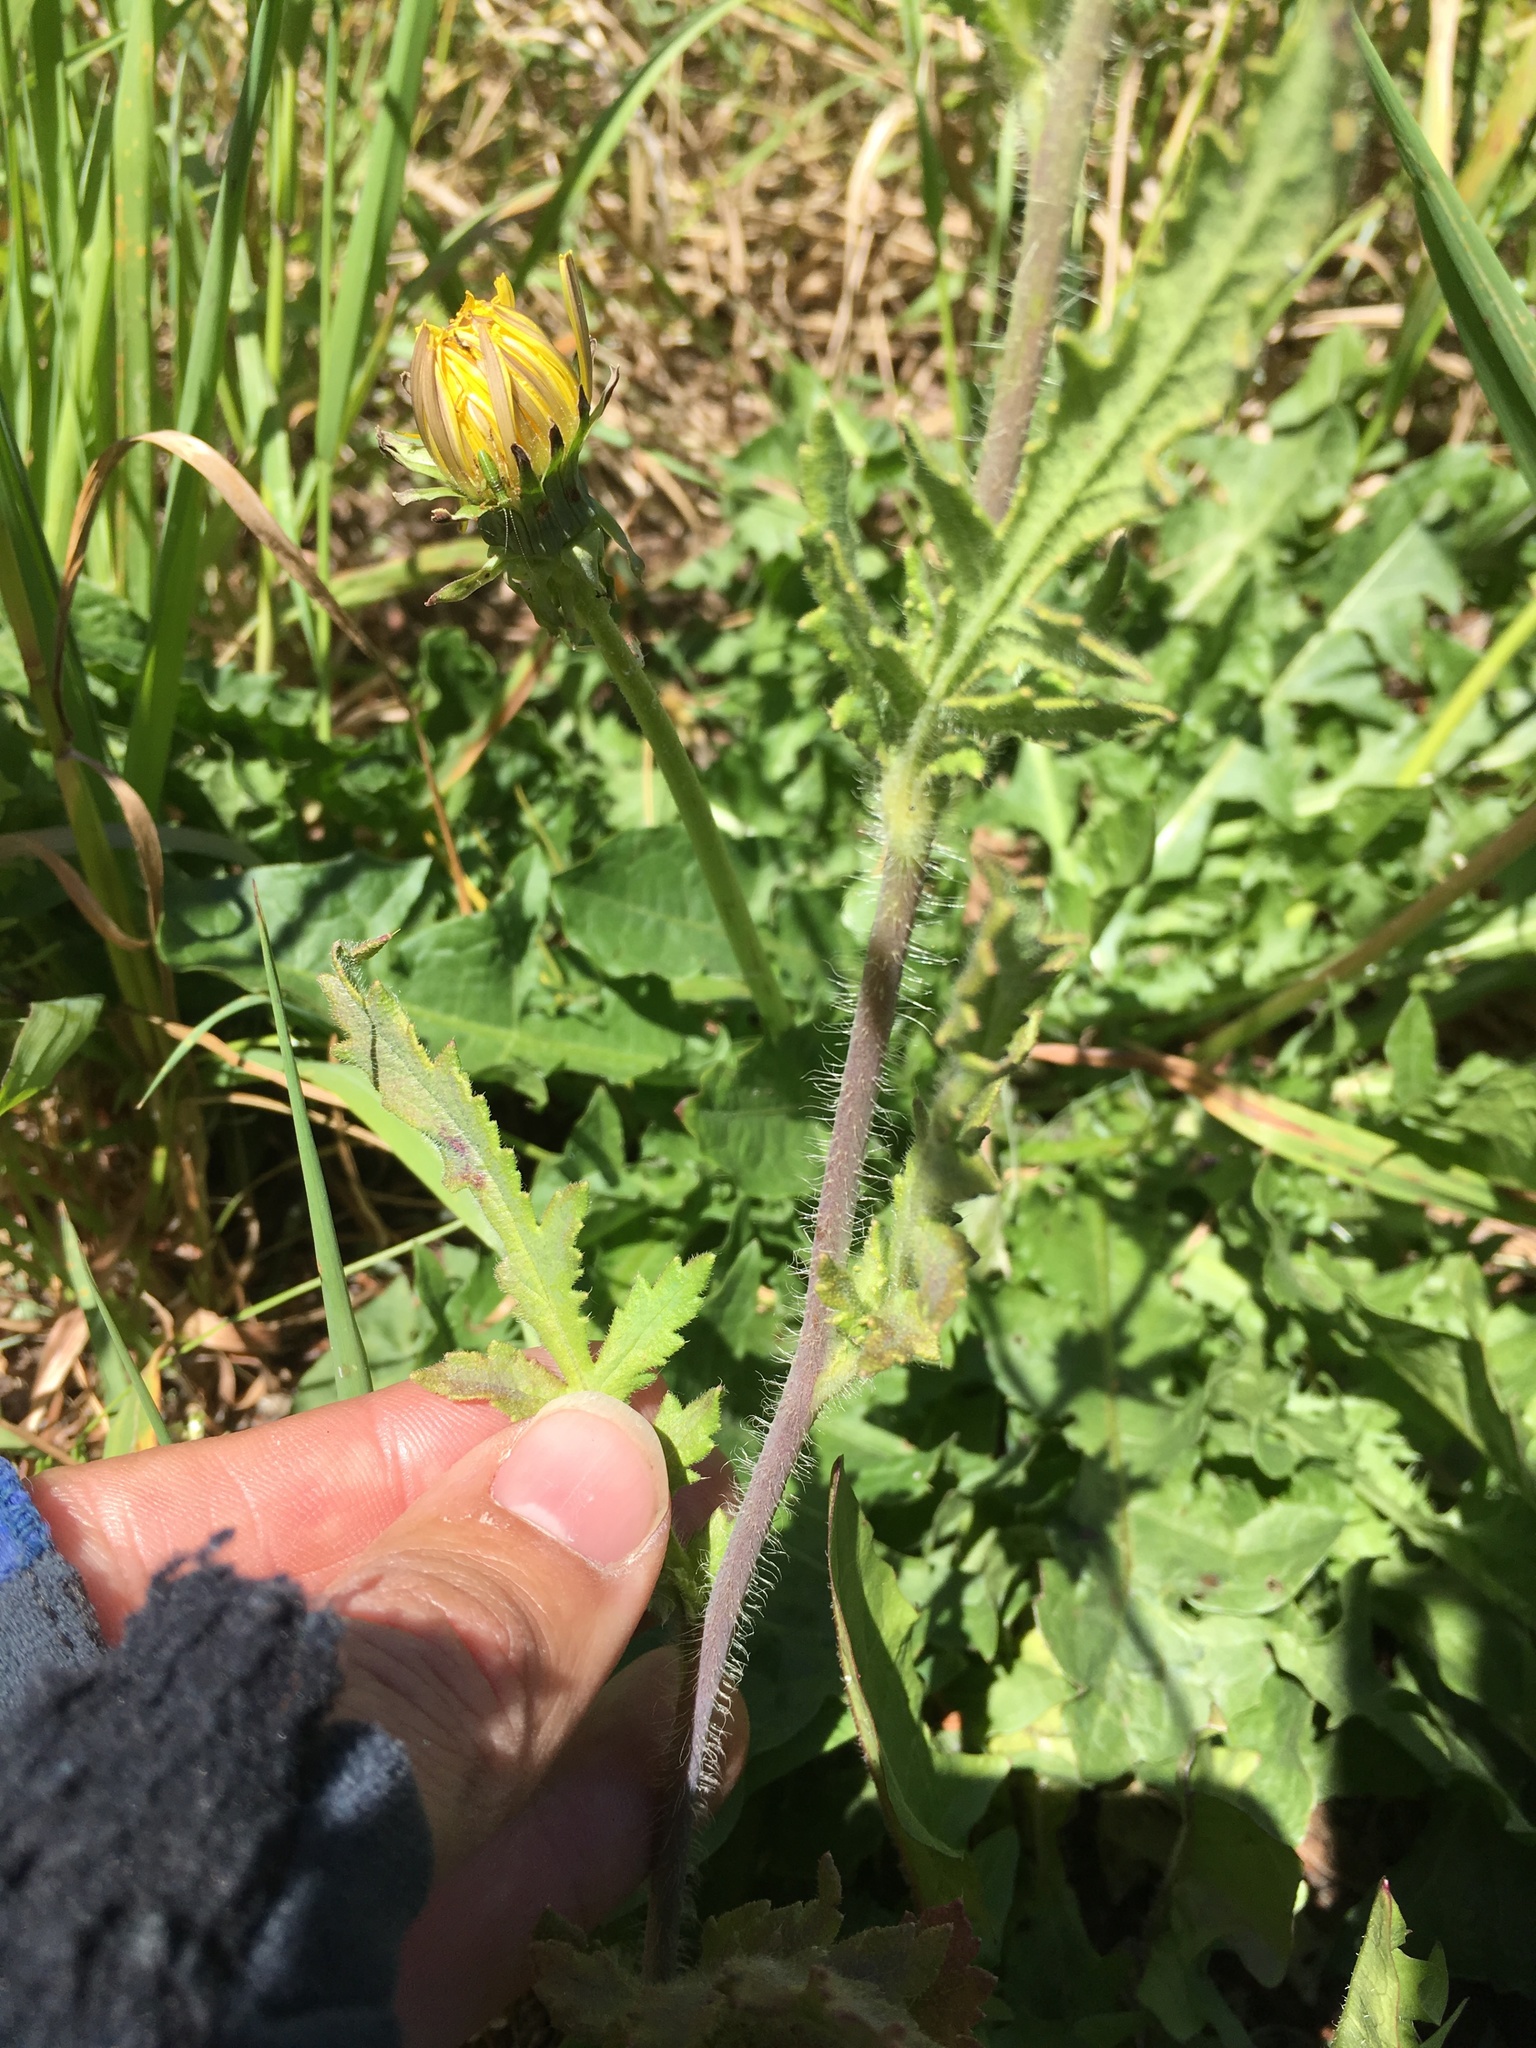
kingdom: Plantae
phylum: Tracheophyta
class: Magnoliopsida
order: Ranunculales
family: Papaveraceae
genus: Papaver
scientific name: Papaver rhoeas
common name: Corn poppy
